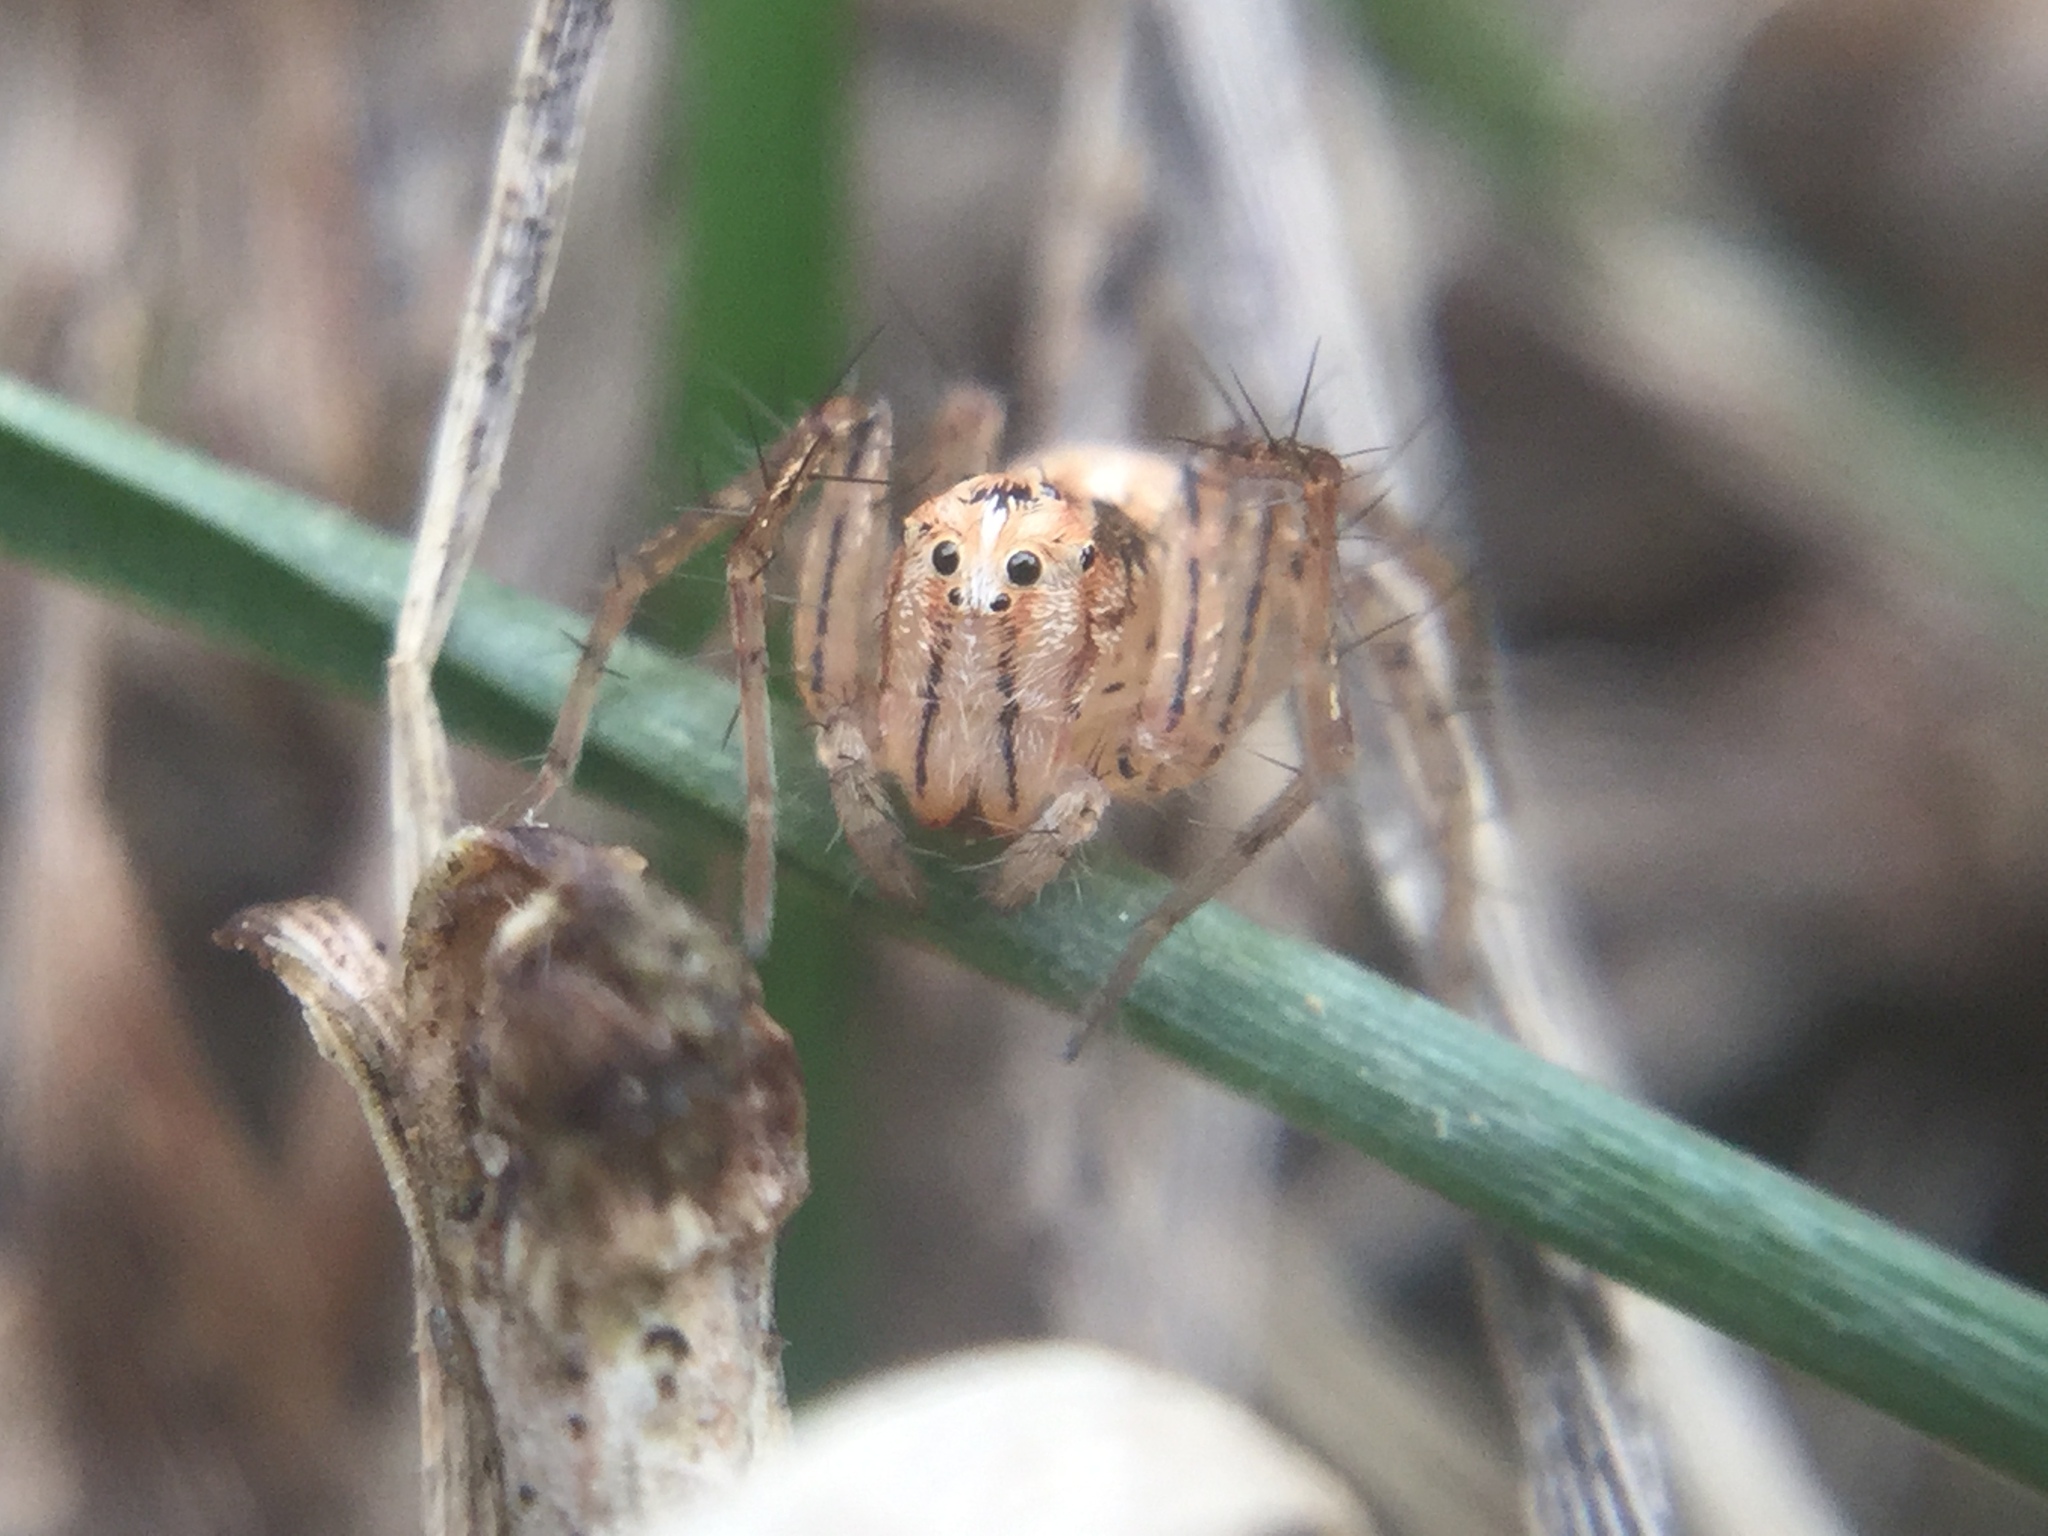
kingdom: Animalia
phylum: Arthropoda
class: Arachnida
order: Araneae
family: Oxyopidae
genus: Oxyopes
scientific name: Oxyopes aglossus
